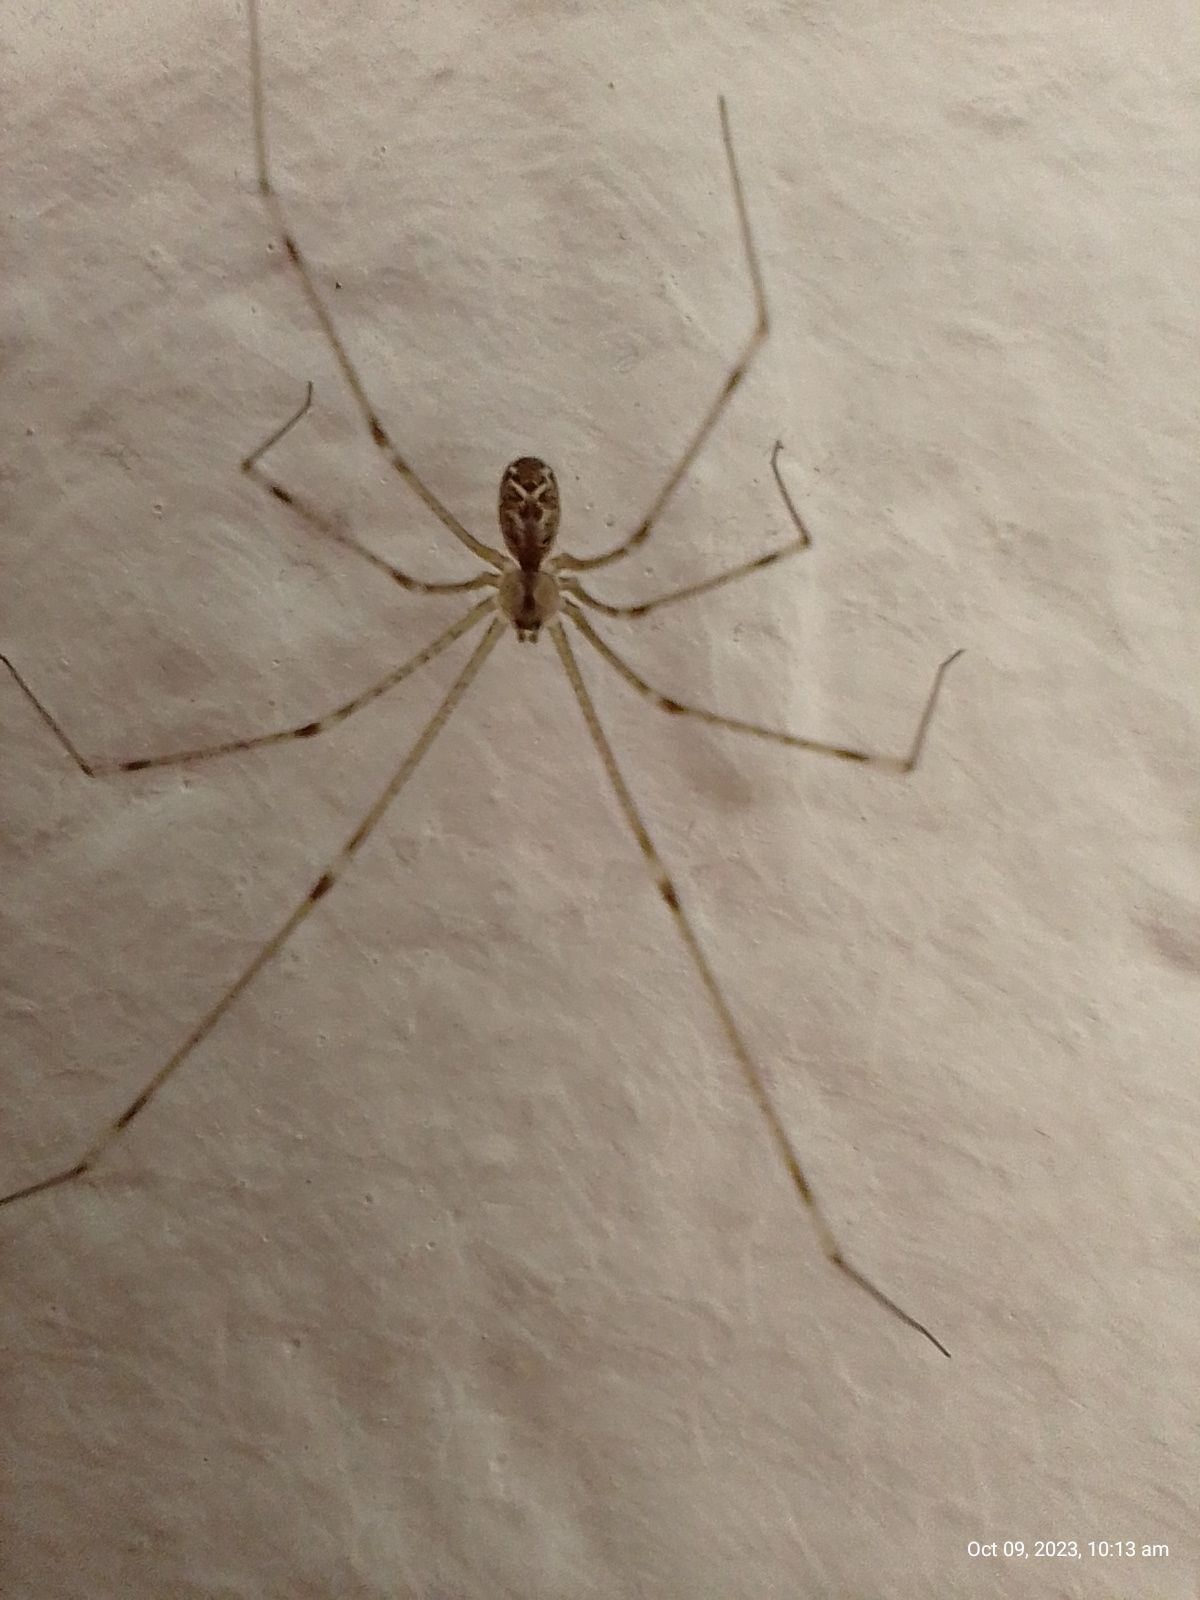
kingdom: Animalia
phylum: Arthropoda
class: Arachnida
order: Araneae
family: Pholcidae
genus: Holocnemus
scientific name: Holocnemus pluchei
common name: Marbled cellar spider
